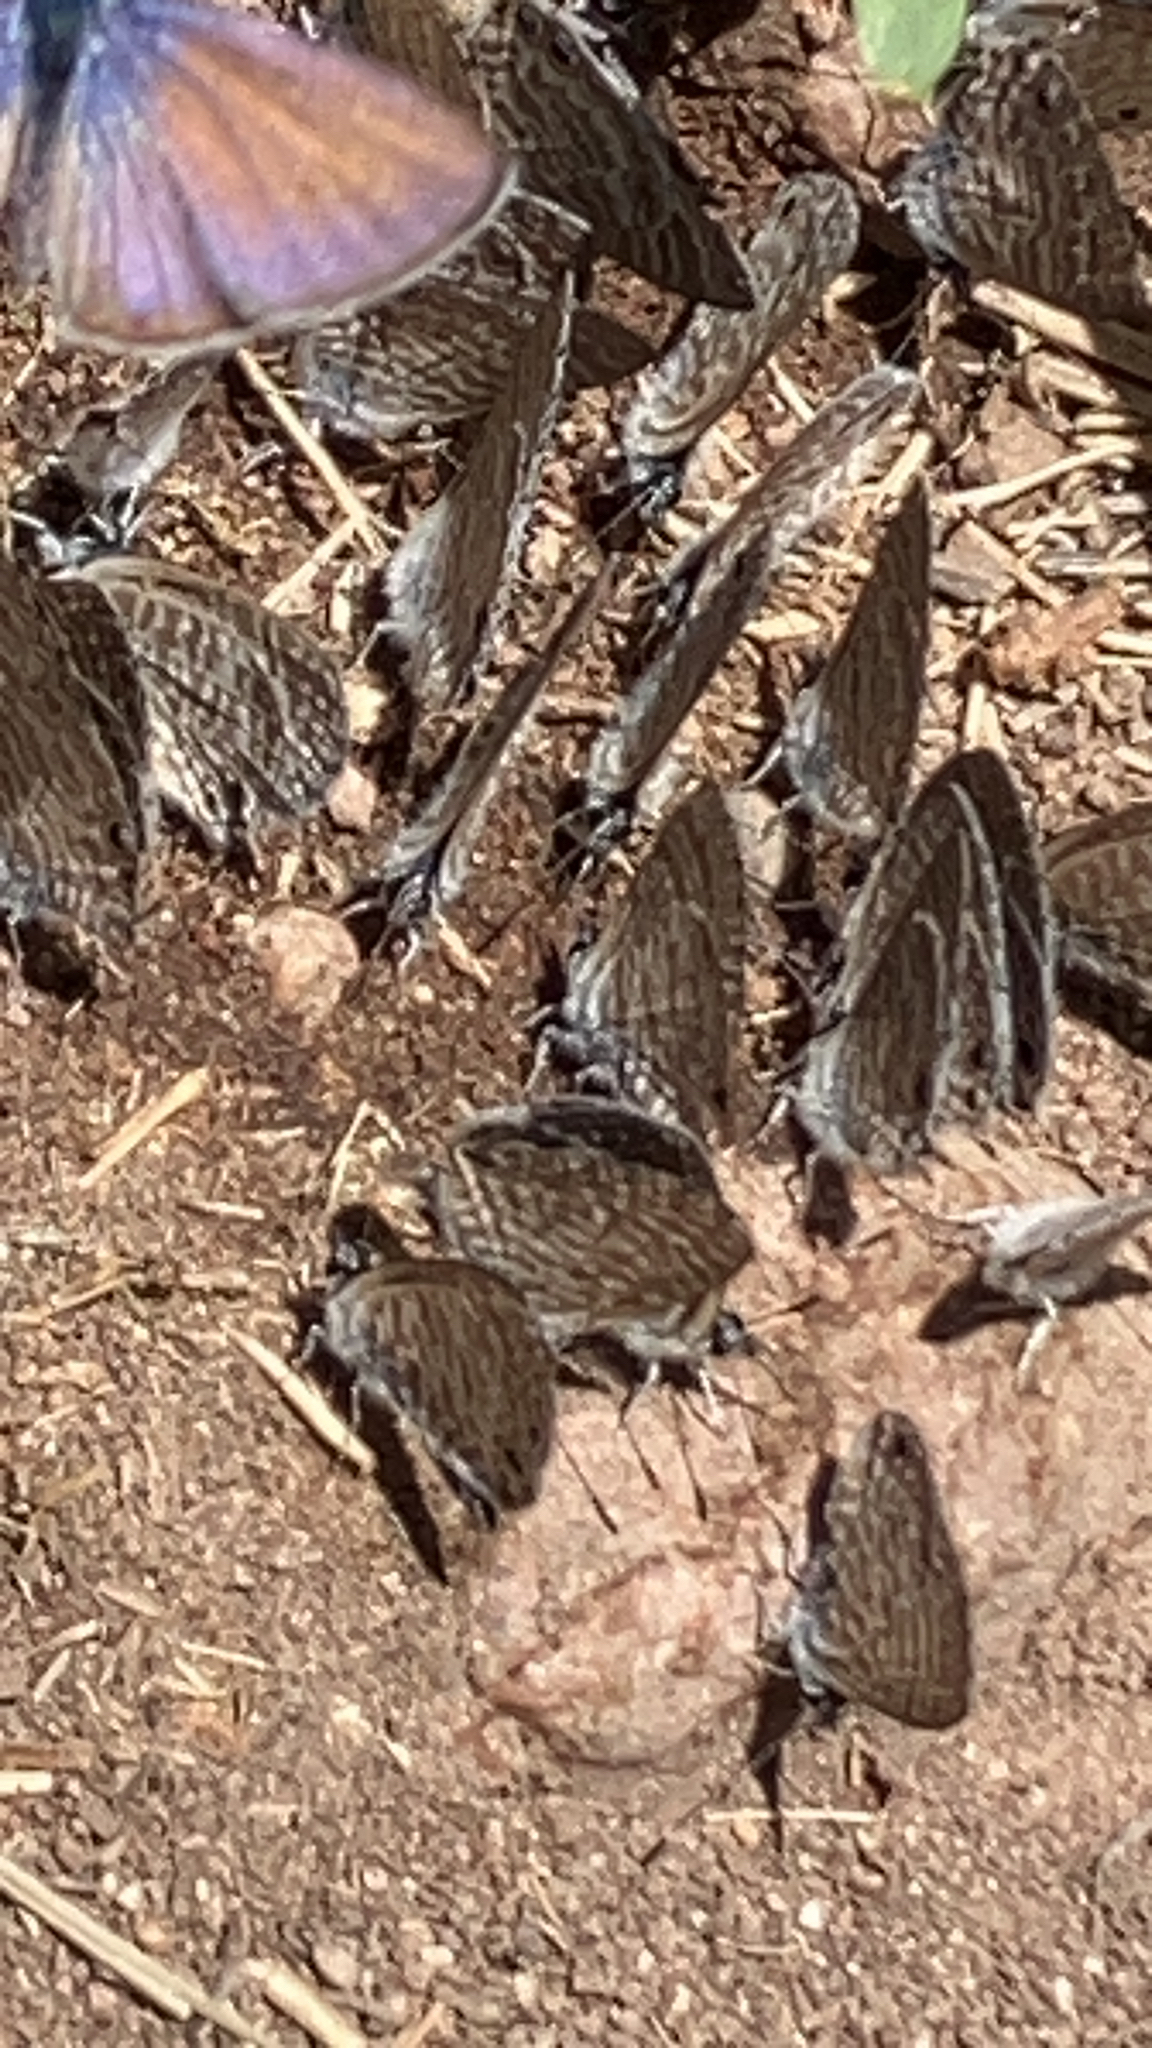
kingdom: Animalia
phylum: Arthropoda
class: Insecta
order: Lepidoptera
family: Lycaenidae
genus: Leptotes
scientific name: Leptotes marina
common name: Marine blue
